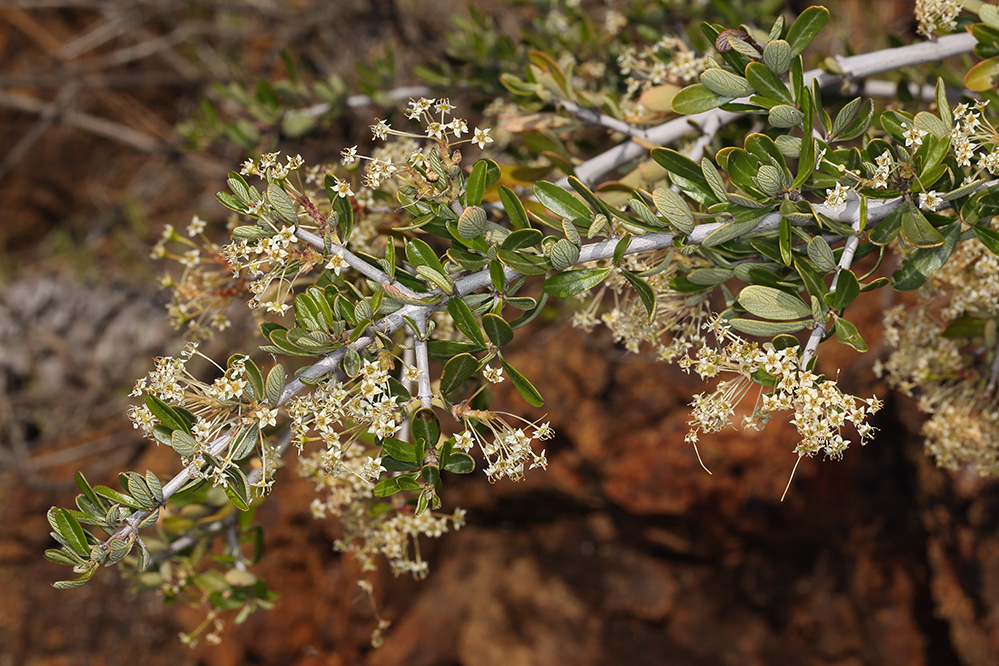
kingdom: Plantae
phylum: Tracheophyta
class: Magnoliopsida
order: Rosales
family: Rhamnaceae
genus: Ceanothus
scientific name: Ceanothus cuneatus
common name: Cuneate ceanothus
